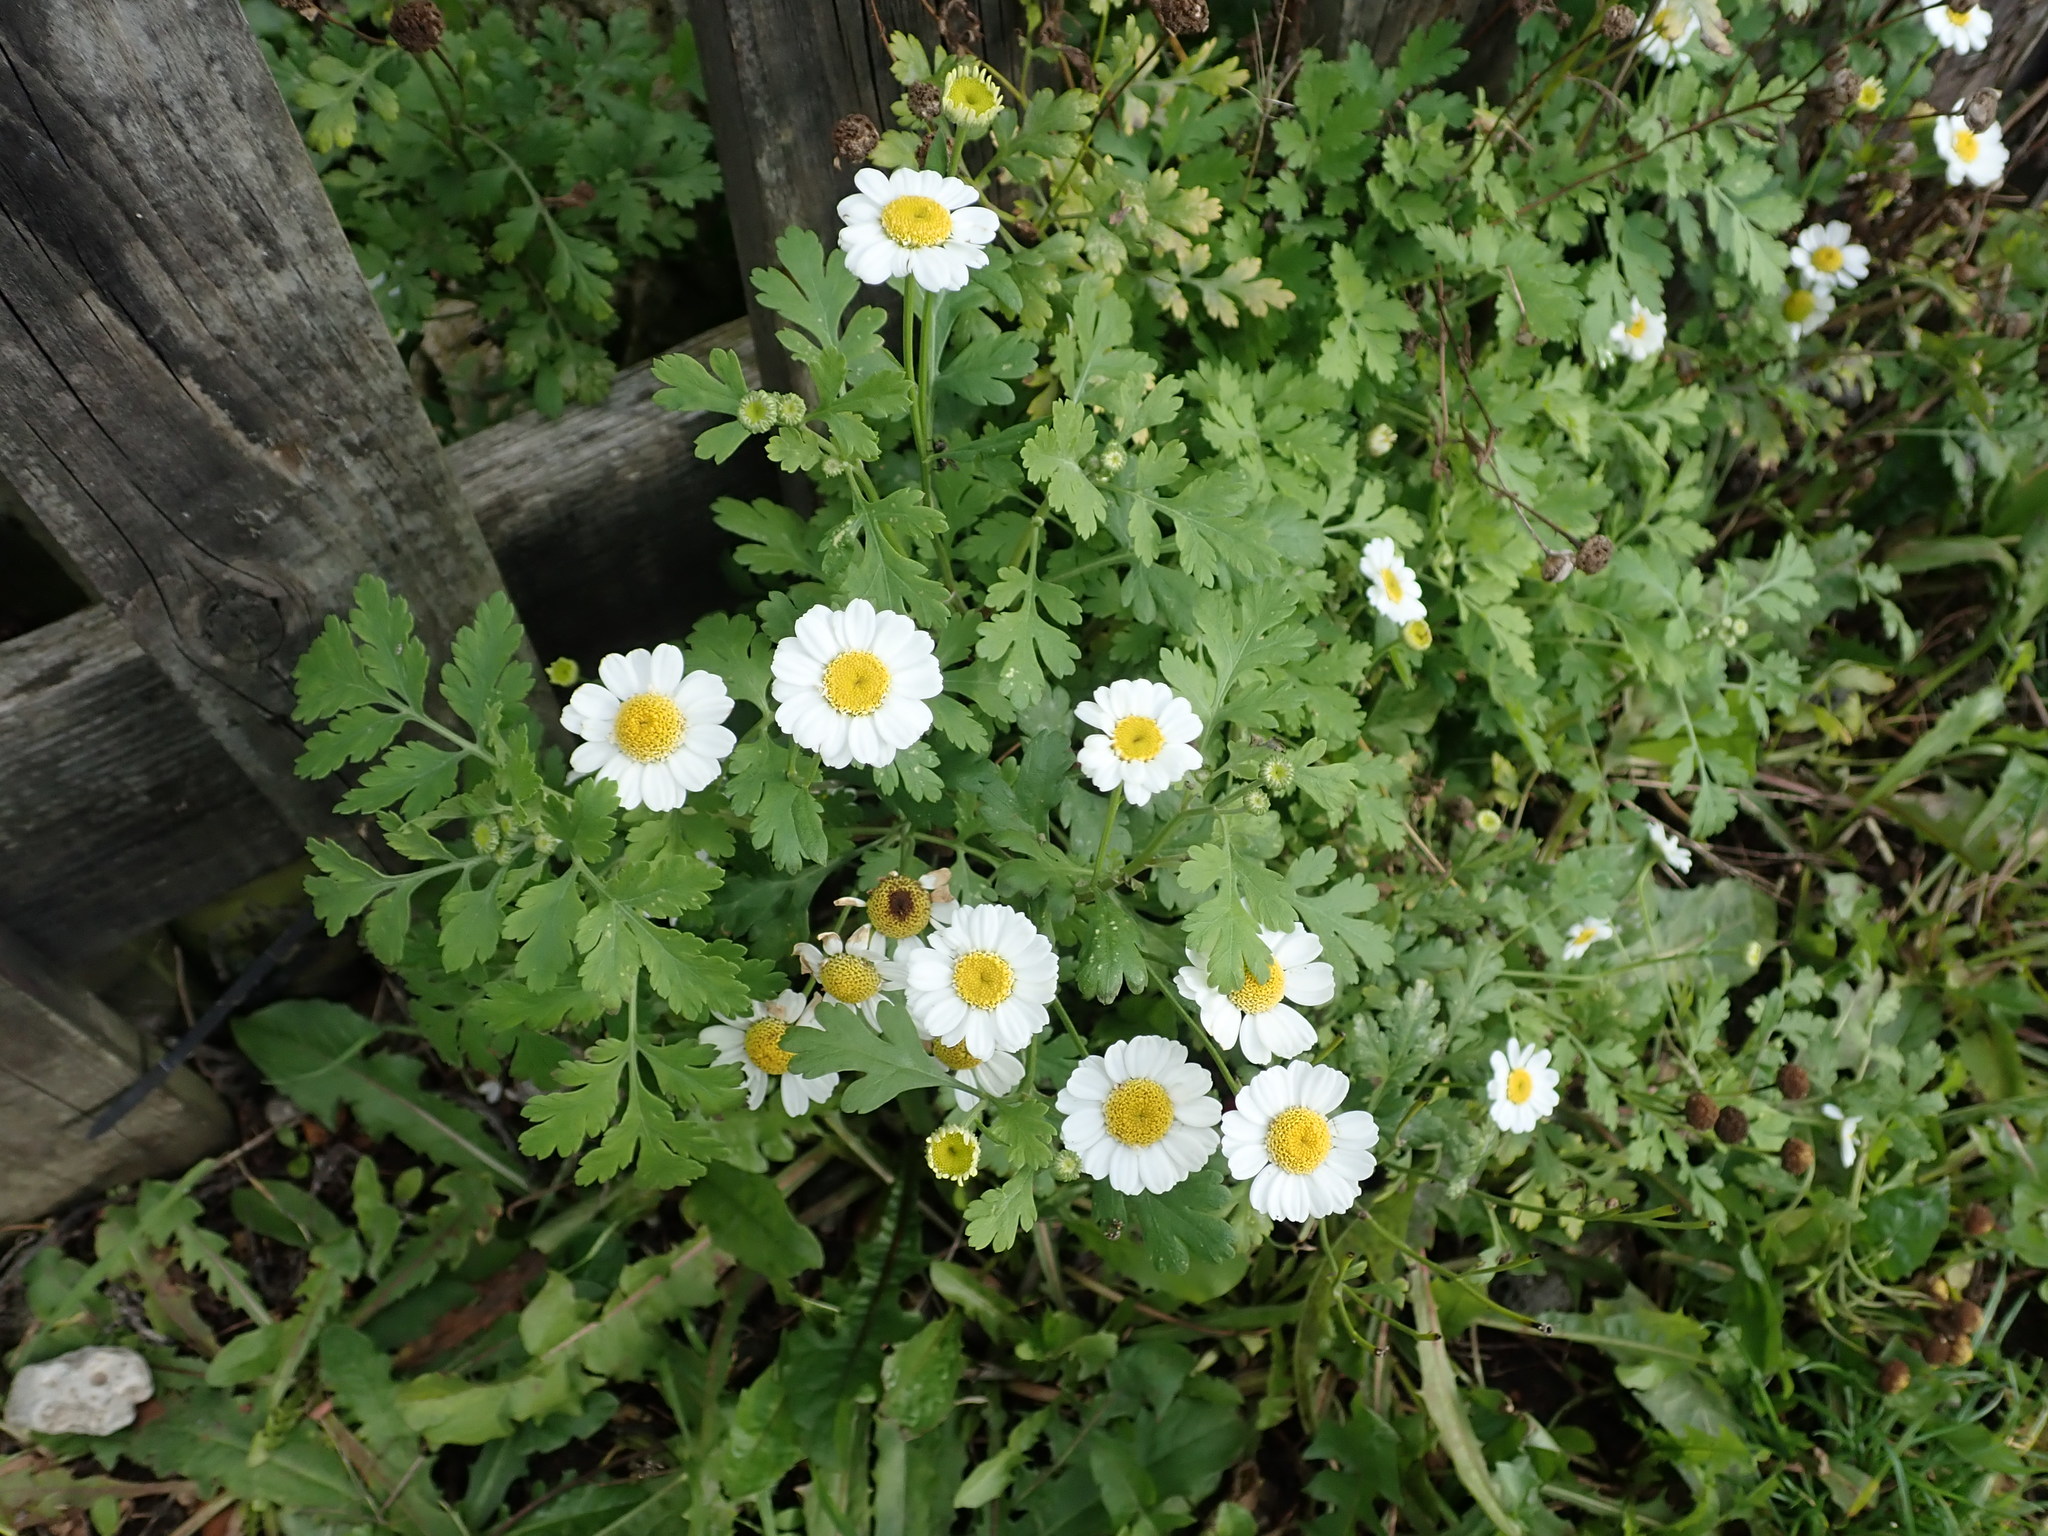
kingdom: Plantae
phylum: Tracheophyta
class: Magnoliopsida
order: Asterales
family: Asteraceae
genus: Tanacetum
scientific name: Tanacetum parthenium
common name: Feverfew
